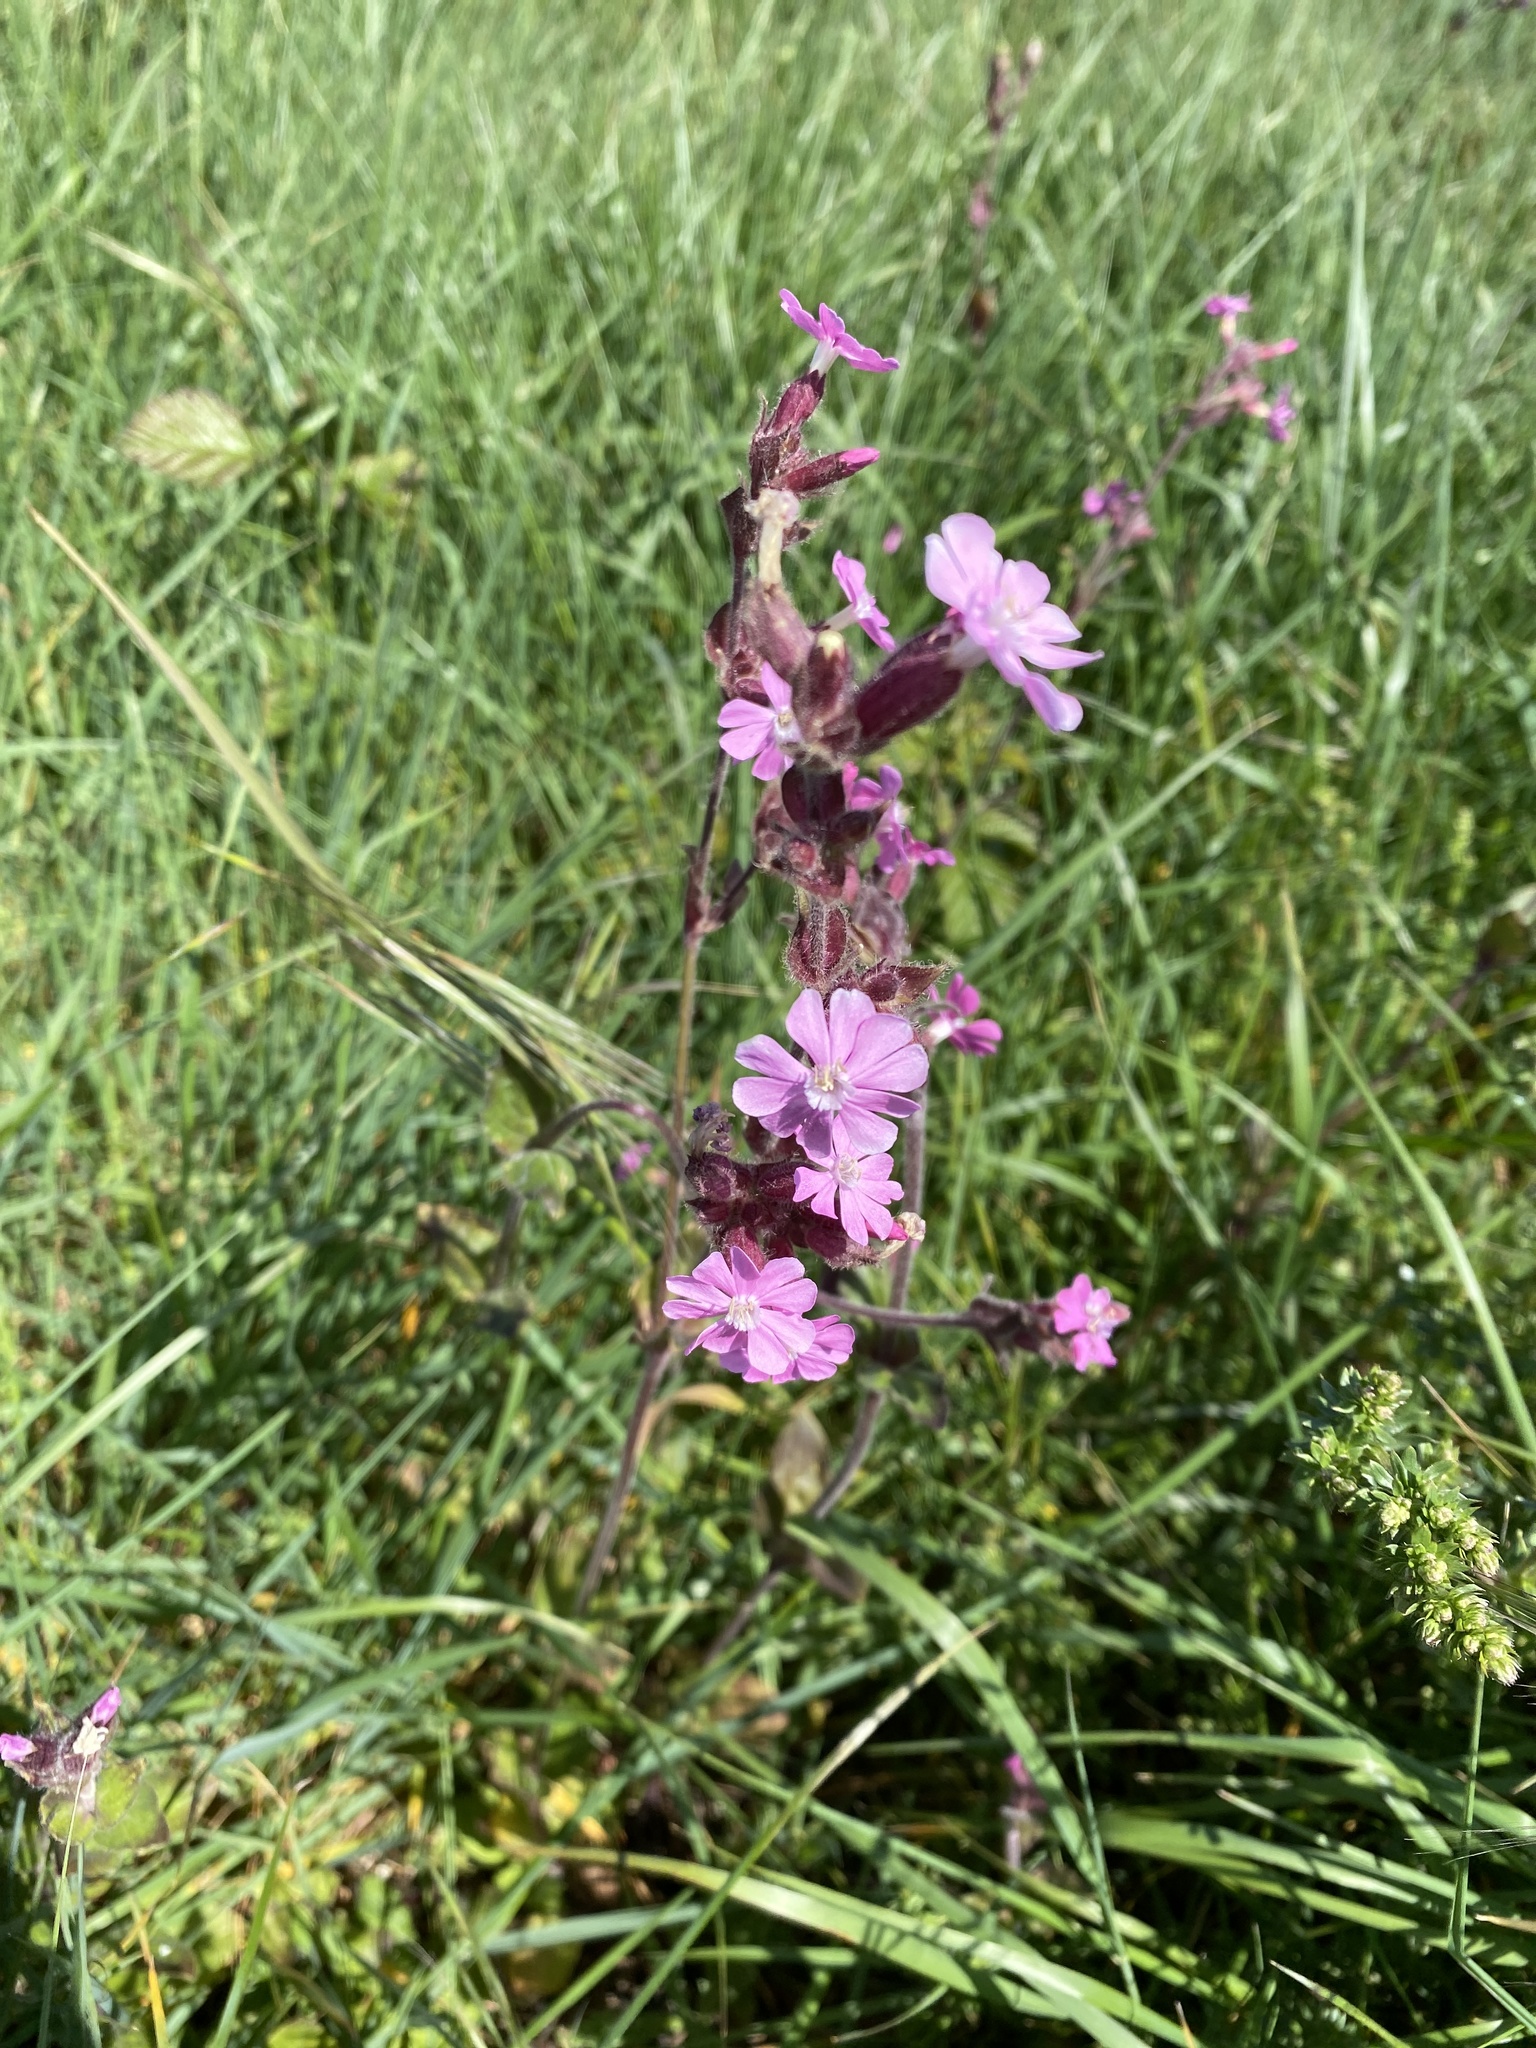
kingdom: Plantae
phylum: Tracheophyta
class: Magnoliopsida
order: Caryophyllales
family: Caryophyllaceae
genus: Silene
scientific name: Silene dioica
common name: Red campion
